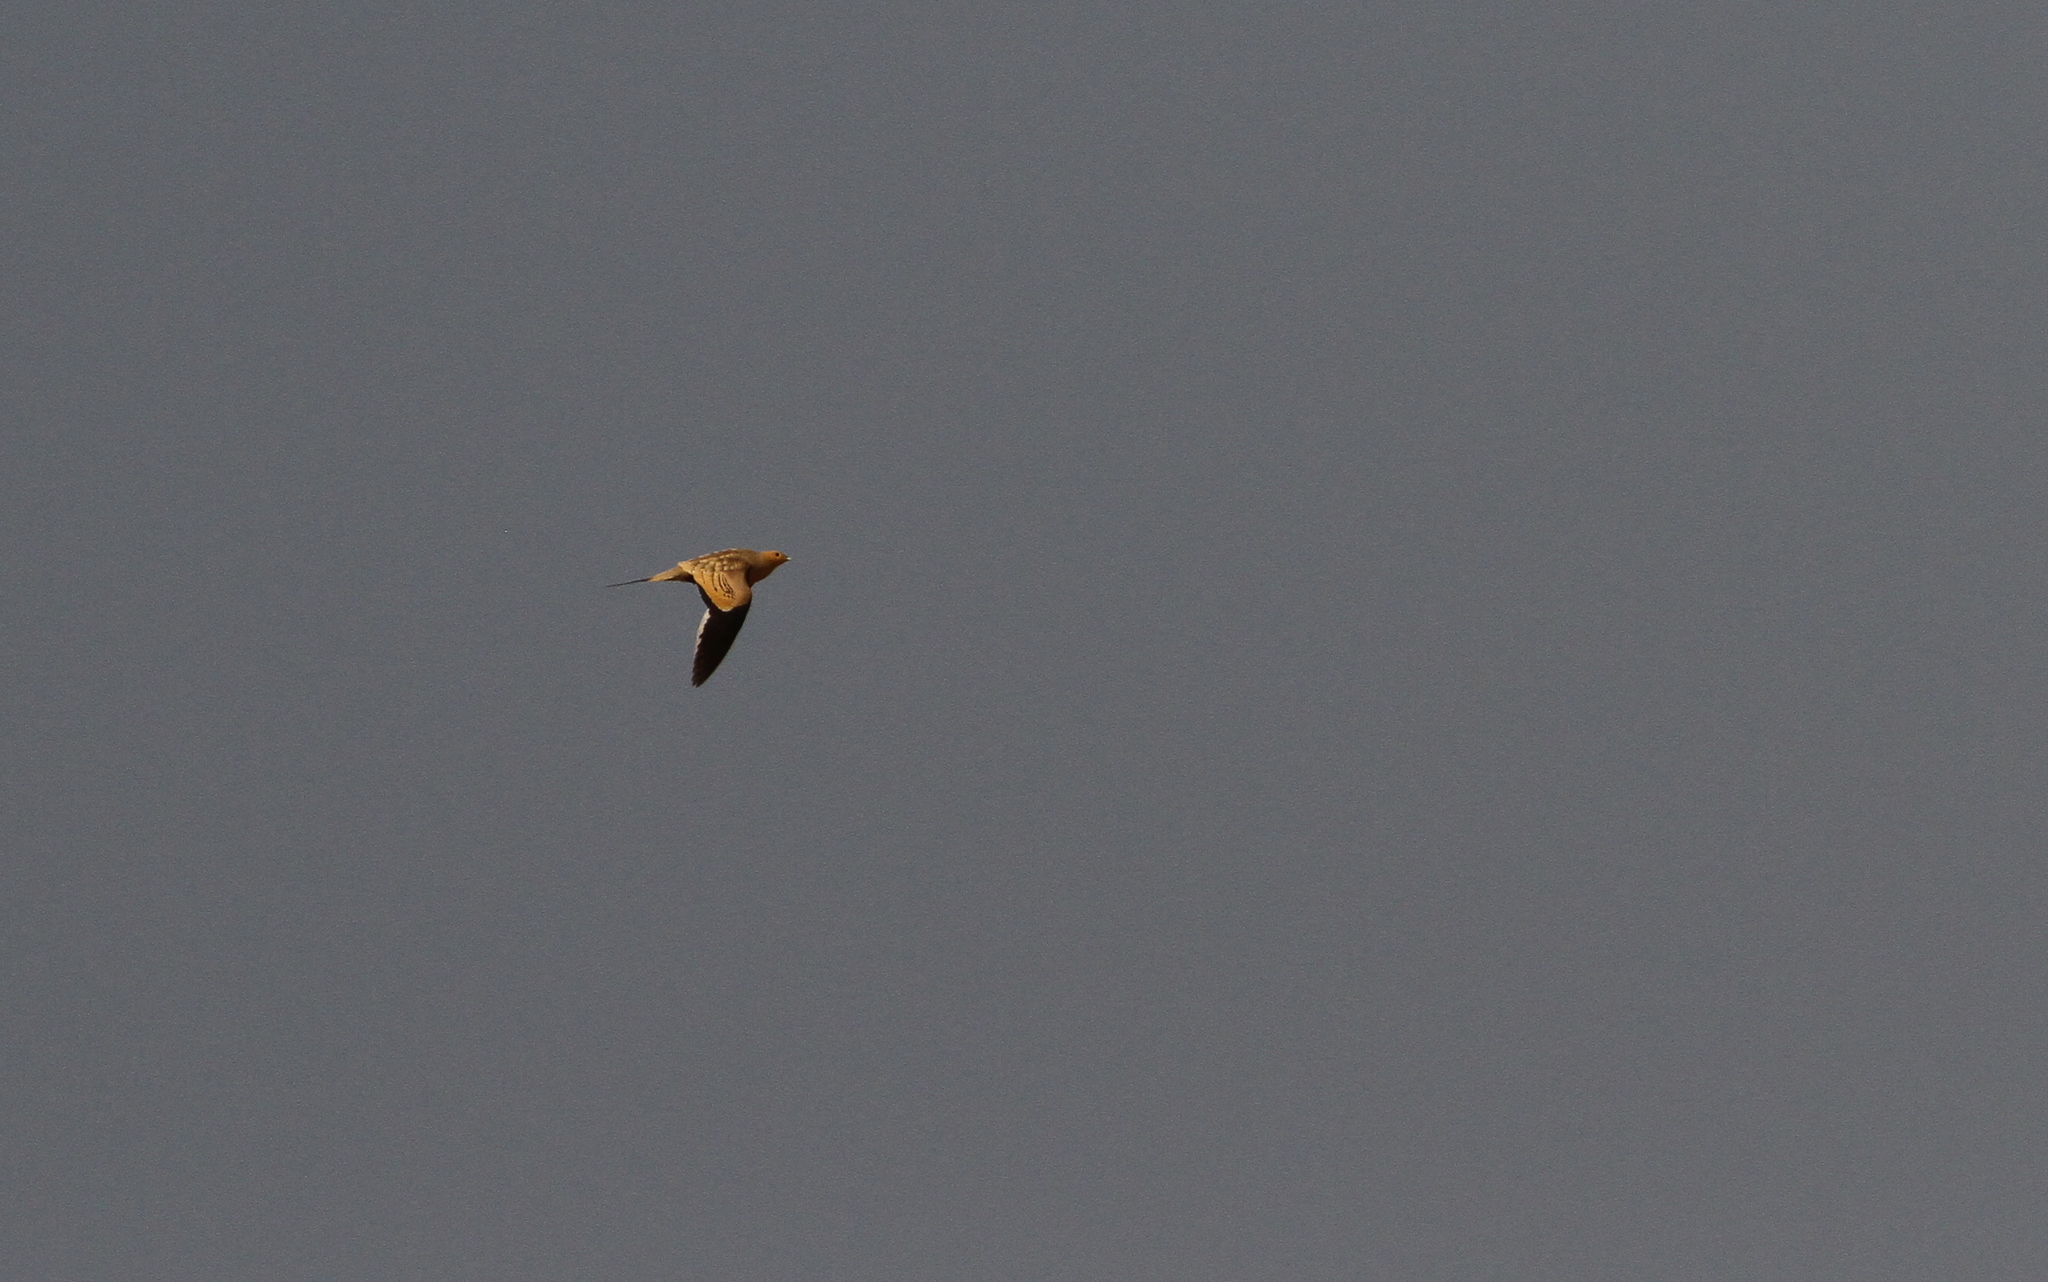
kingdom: Animalia
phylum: Chordata
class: Aves
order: Pteroclidiformes
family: Pteroclididae
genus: Pterocles
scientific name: Pterocles exustus
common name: Chestnut-bellied sandgrouse
